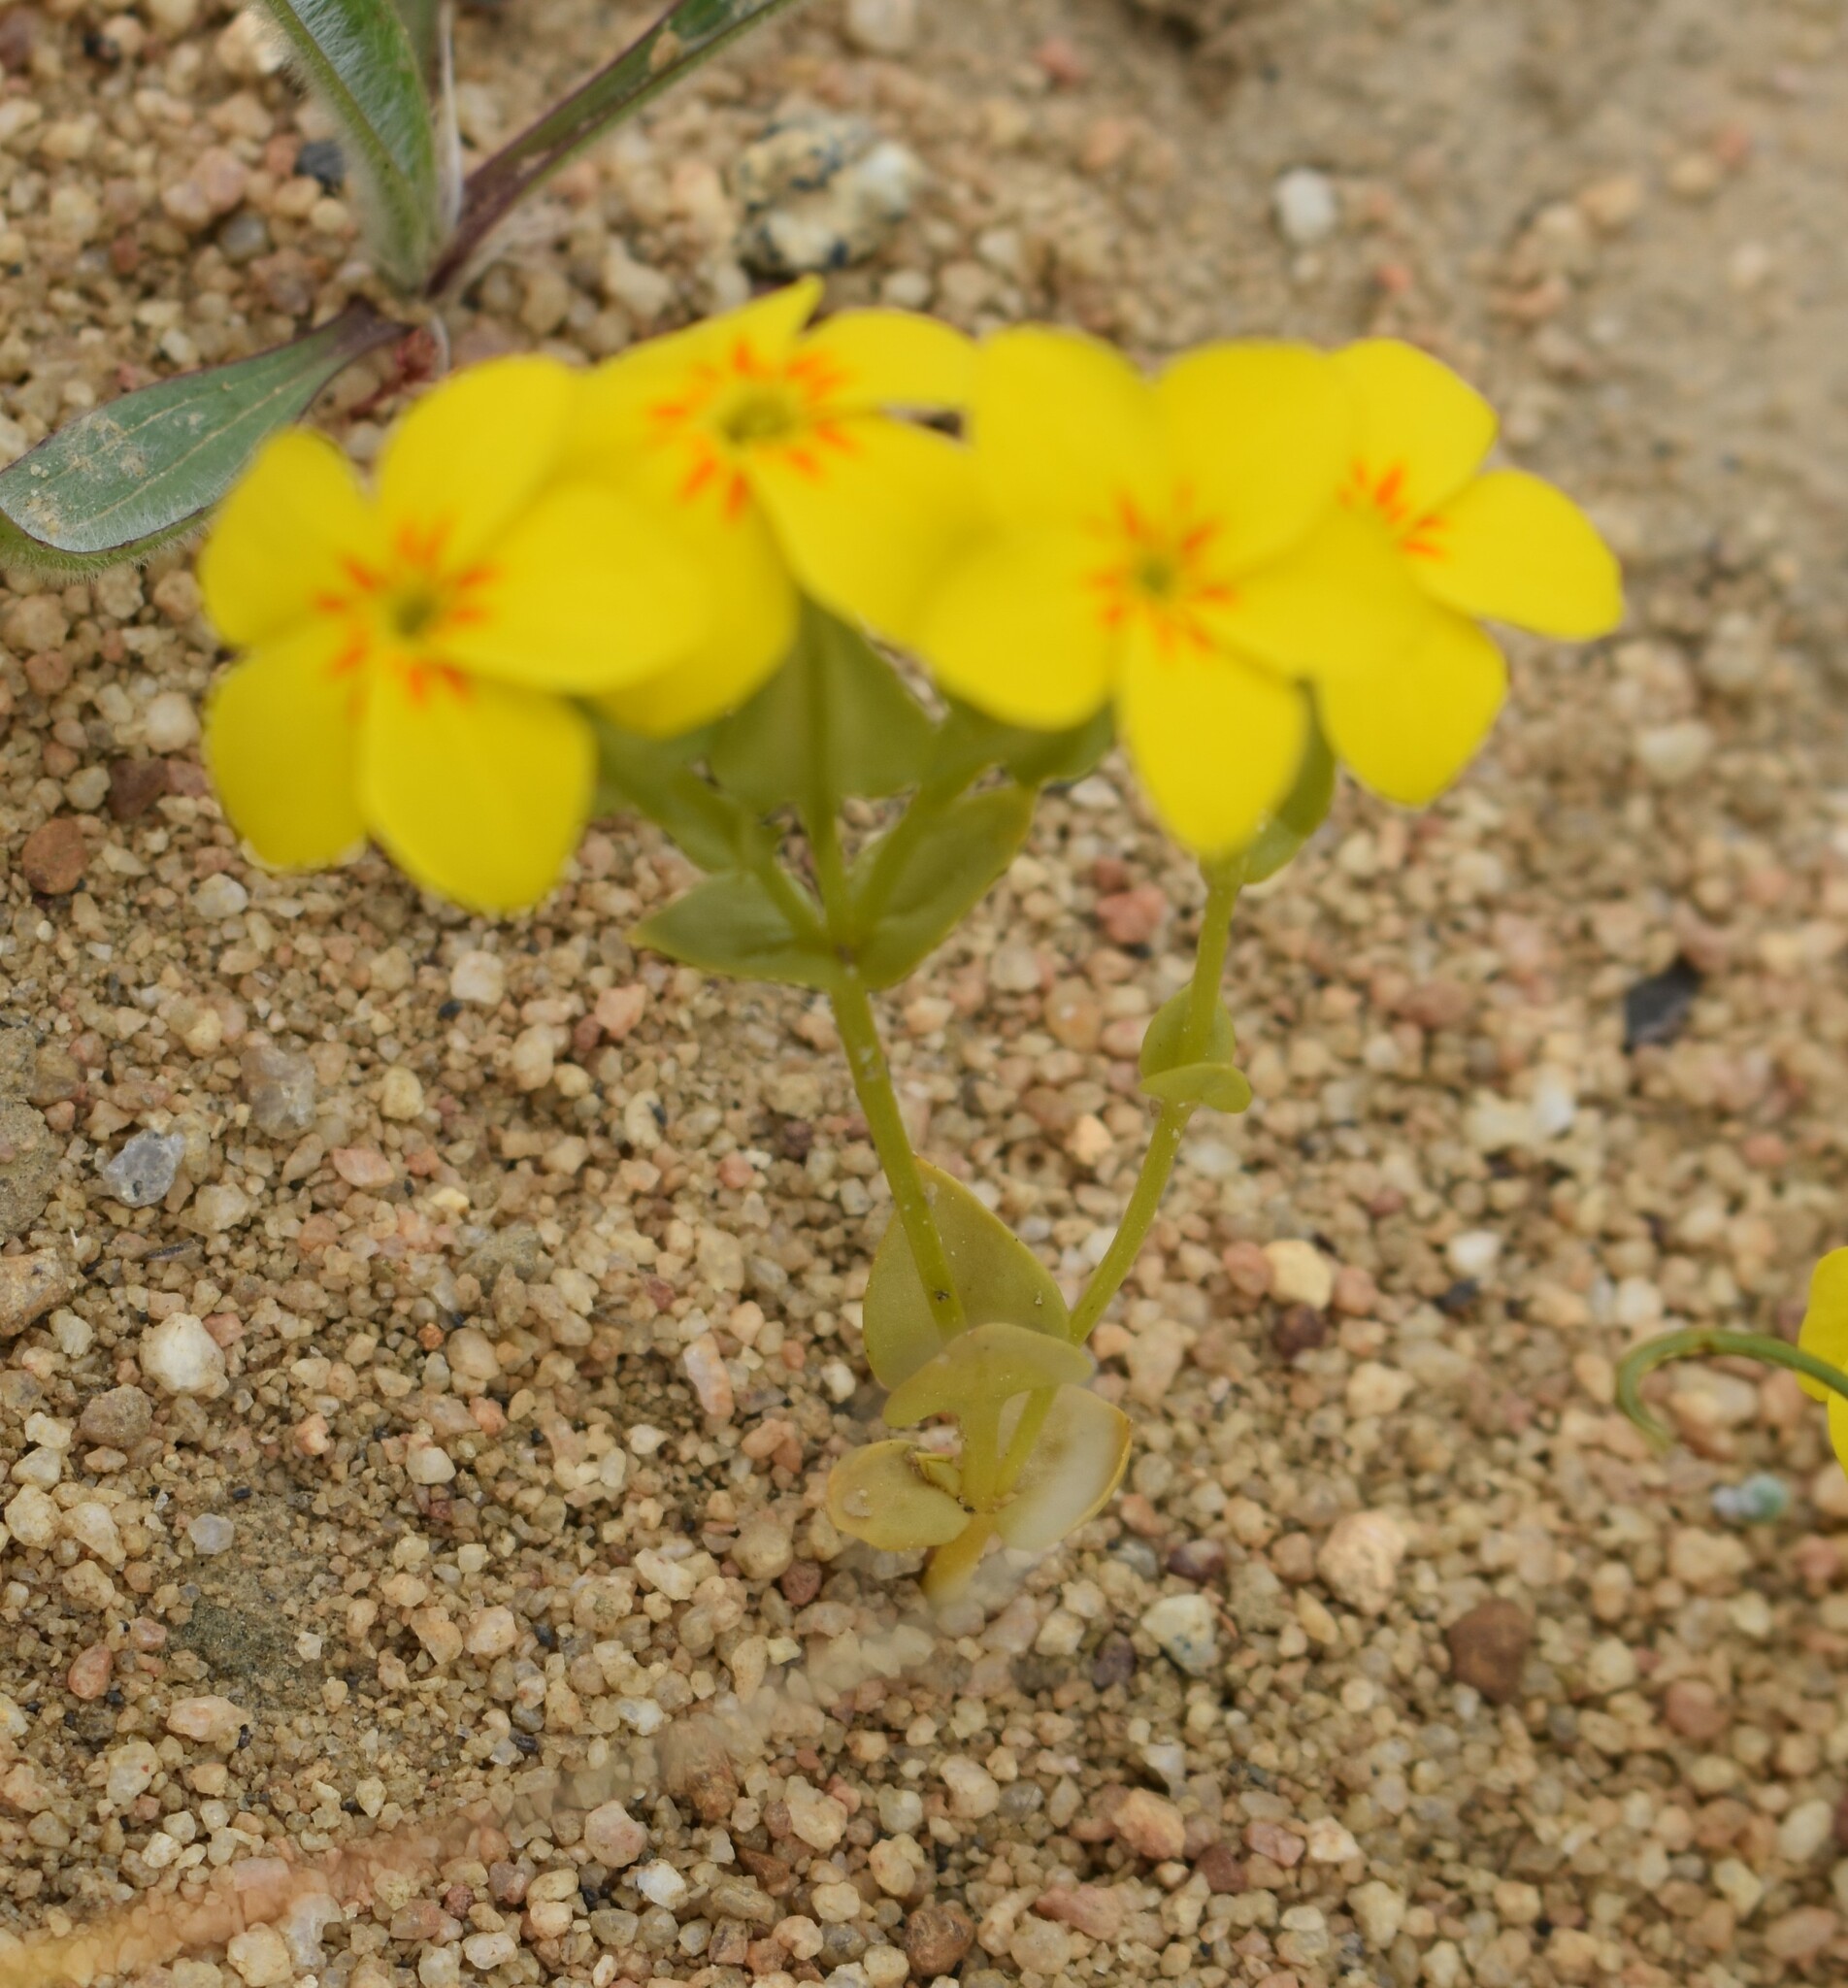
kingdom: Plantae
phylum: Tracheophyta
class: Magnoliopsida
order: Gentianales
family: Gentianaceae
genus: Sebaea
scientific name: Sebaea exacoides
